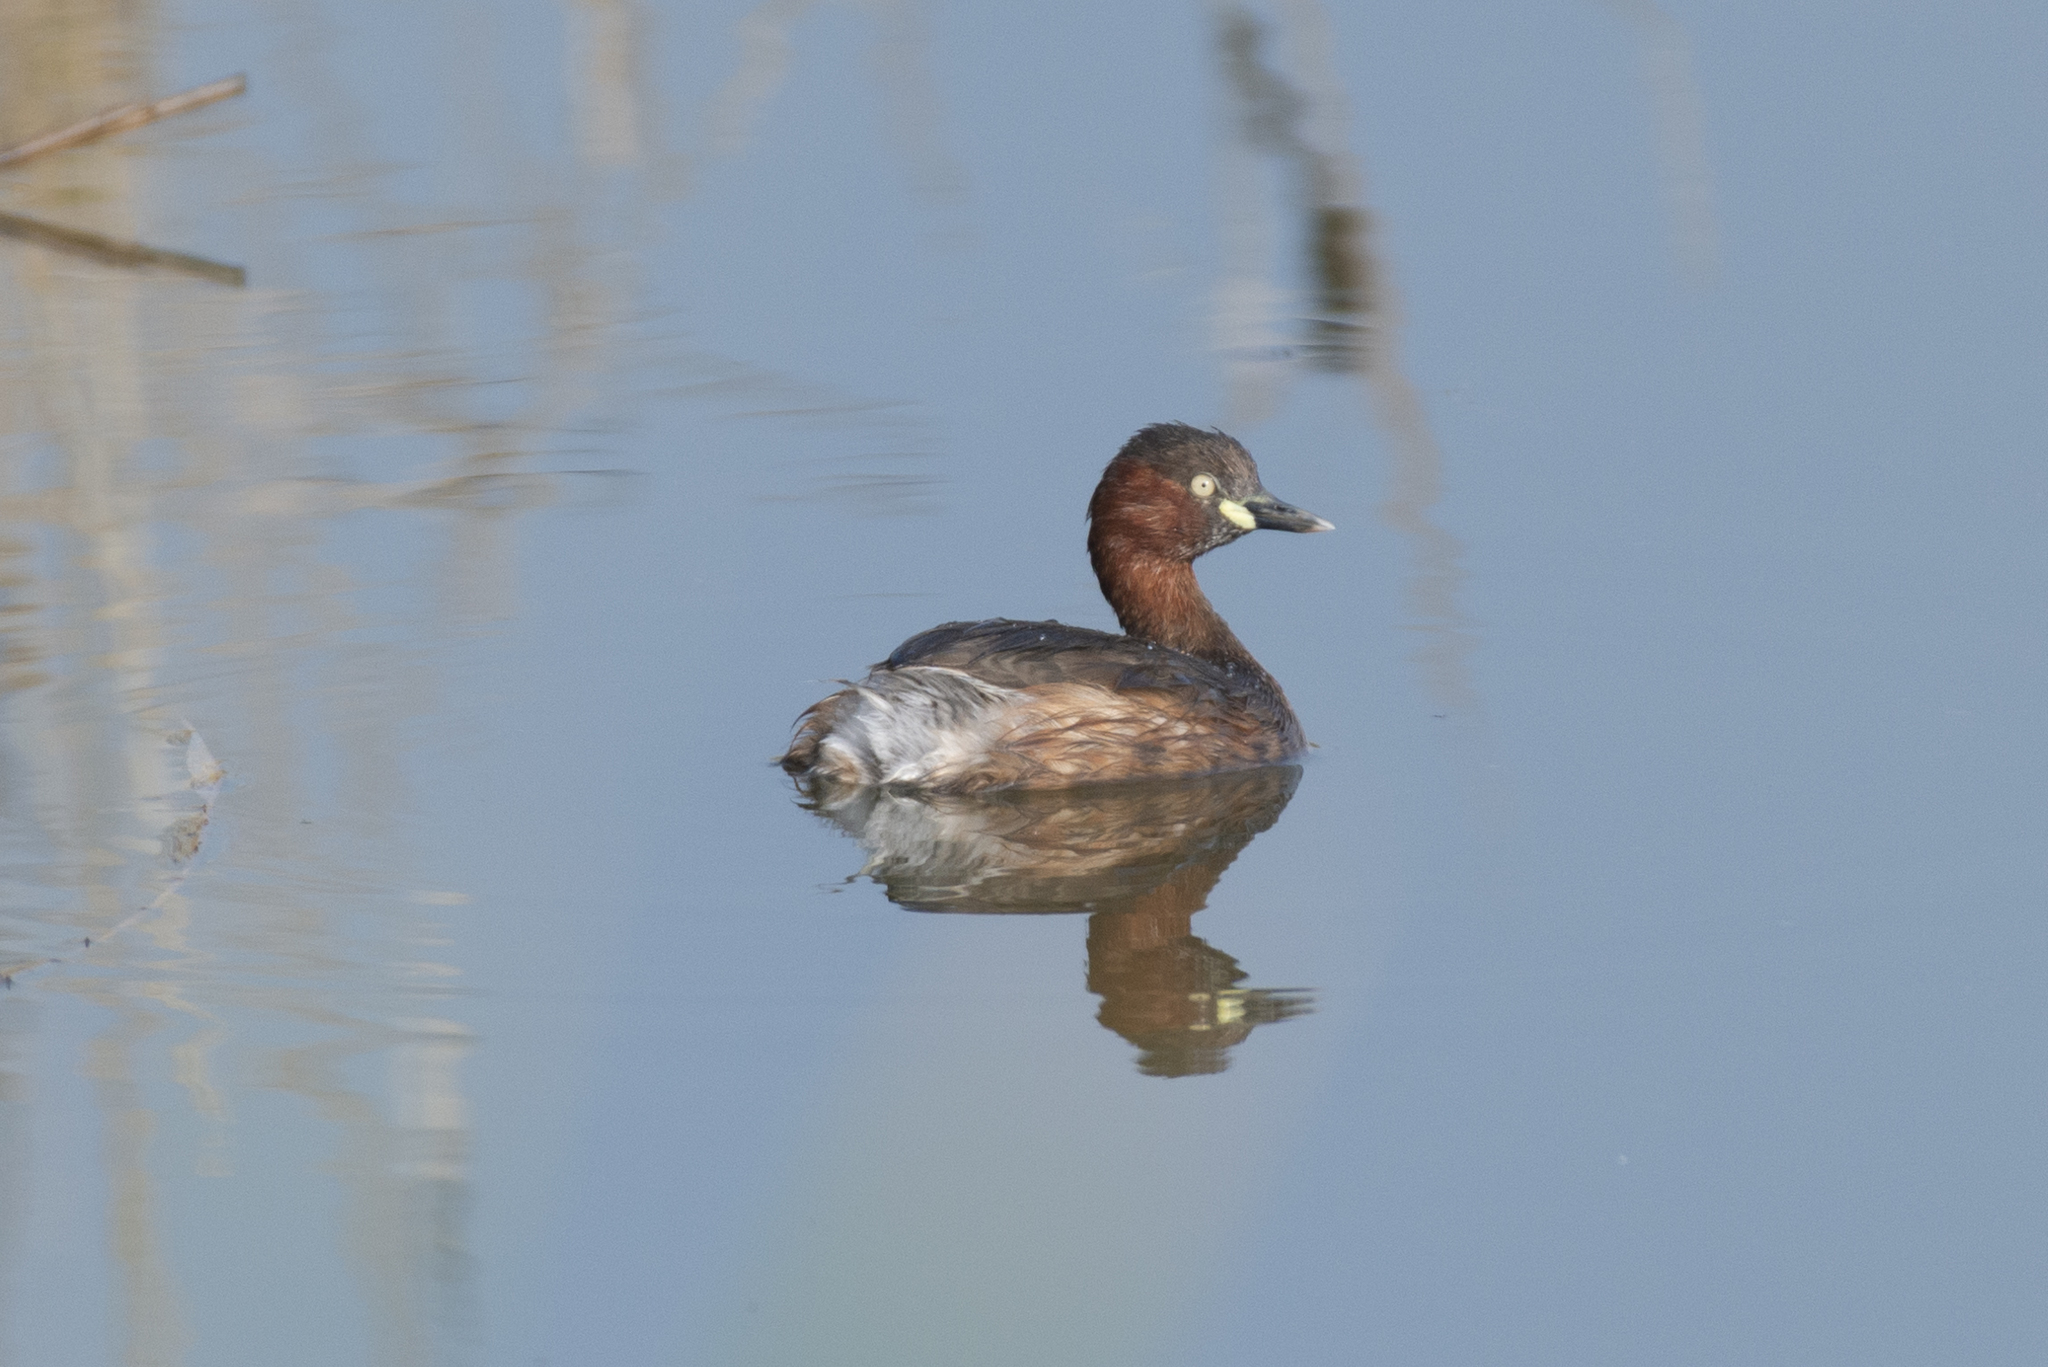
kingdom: Animalia
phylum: Chordata
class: Aves
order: Podicipediformes
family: Podicipedidae
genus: Tachybaptus
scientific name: Tachybaptus ruficollis
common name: Little grebe
